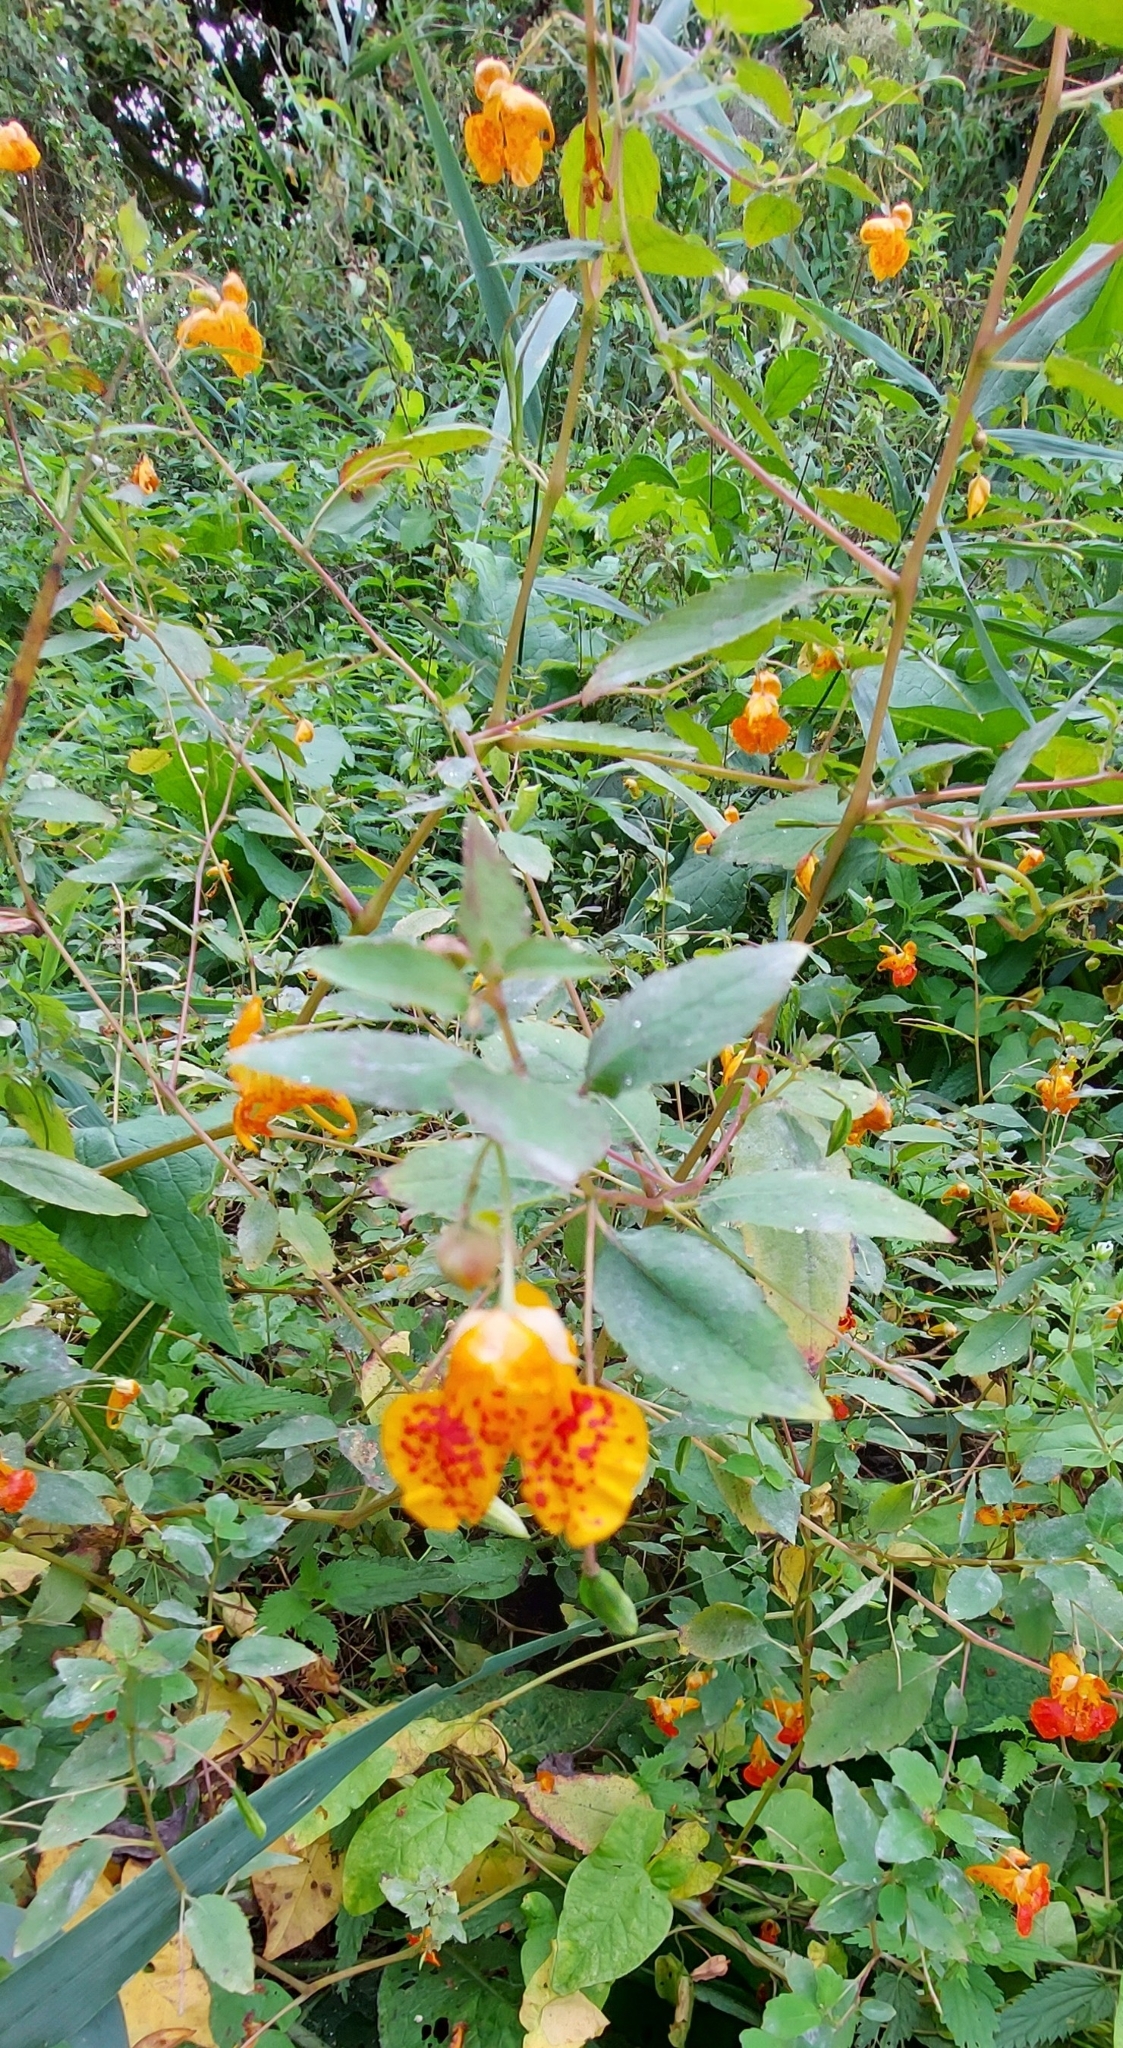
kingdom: Plantae
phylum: Tracheophyta
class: Magnoliopsida
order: Ericales
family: Balsaminaceae
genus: Impatiens
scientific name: Impatiens capensis
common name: Orange balsam
